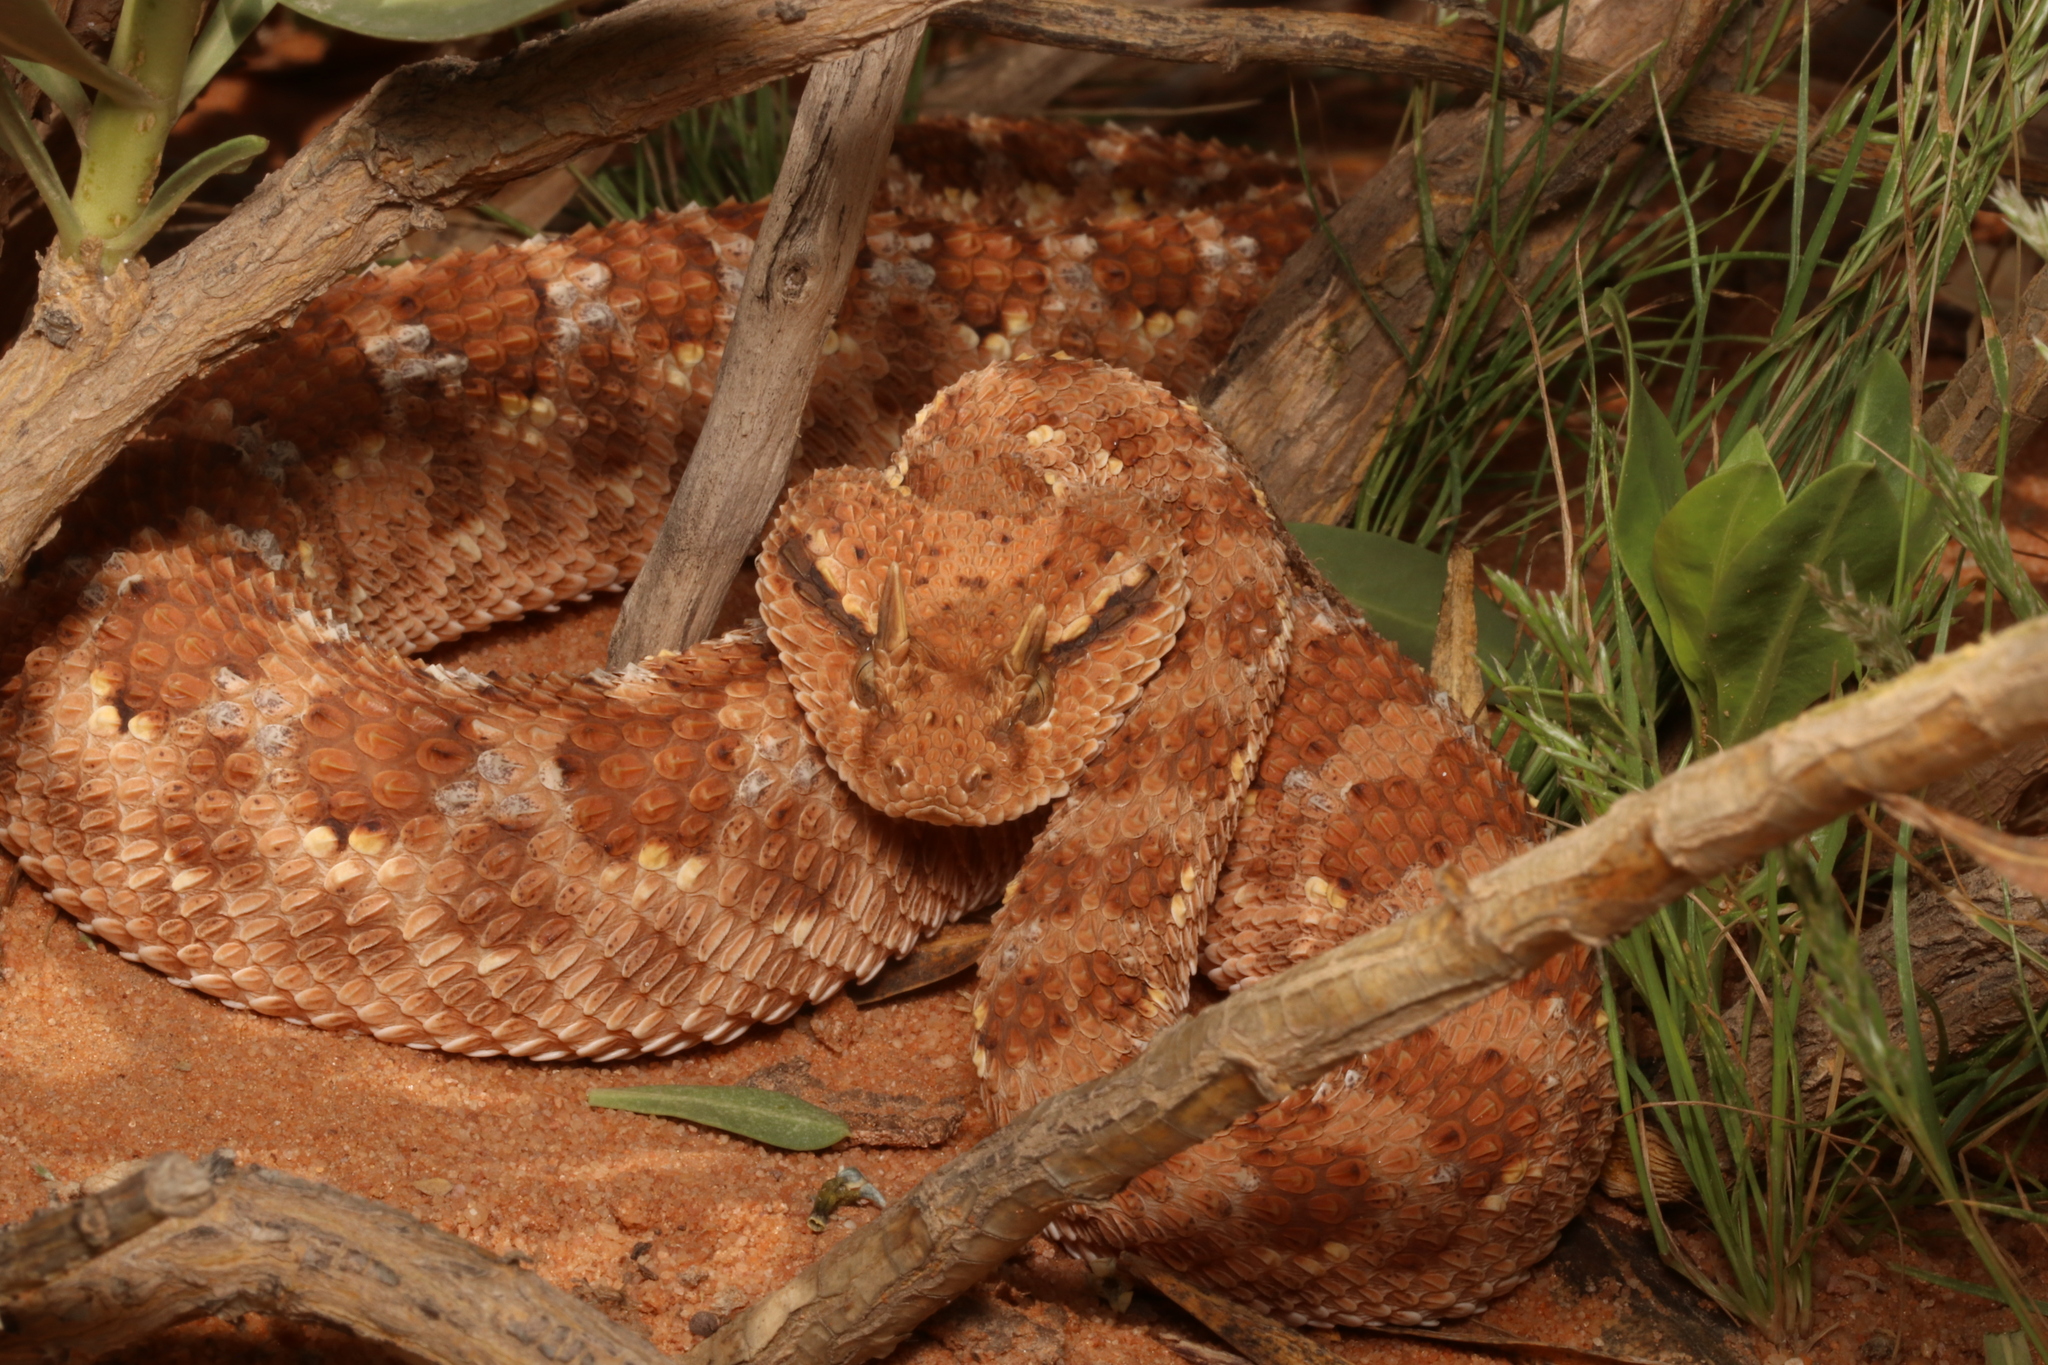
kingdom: Animalia
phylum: Chordata
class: Squamata
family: Viperidae
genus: Cerastes
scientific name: Cerastes gasperettii
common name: Arabian horned viper
